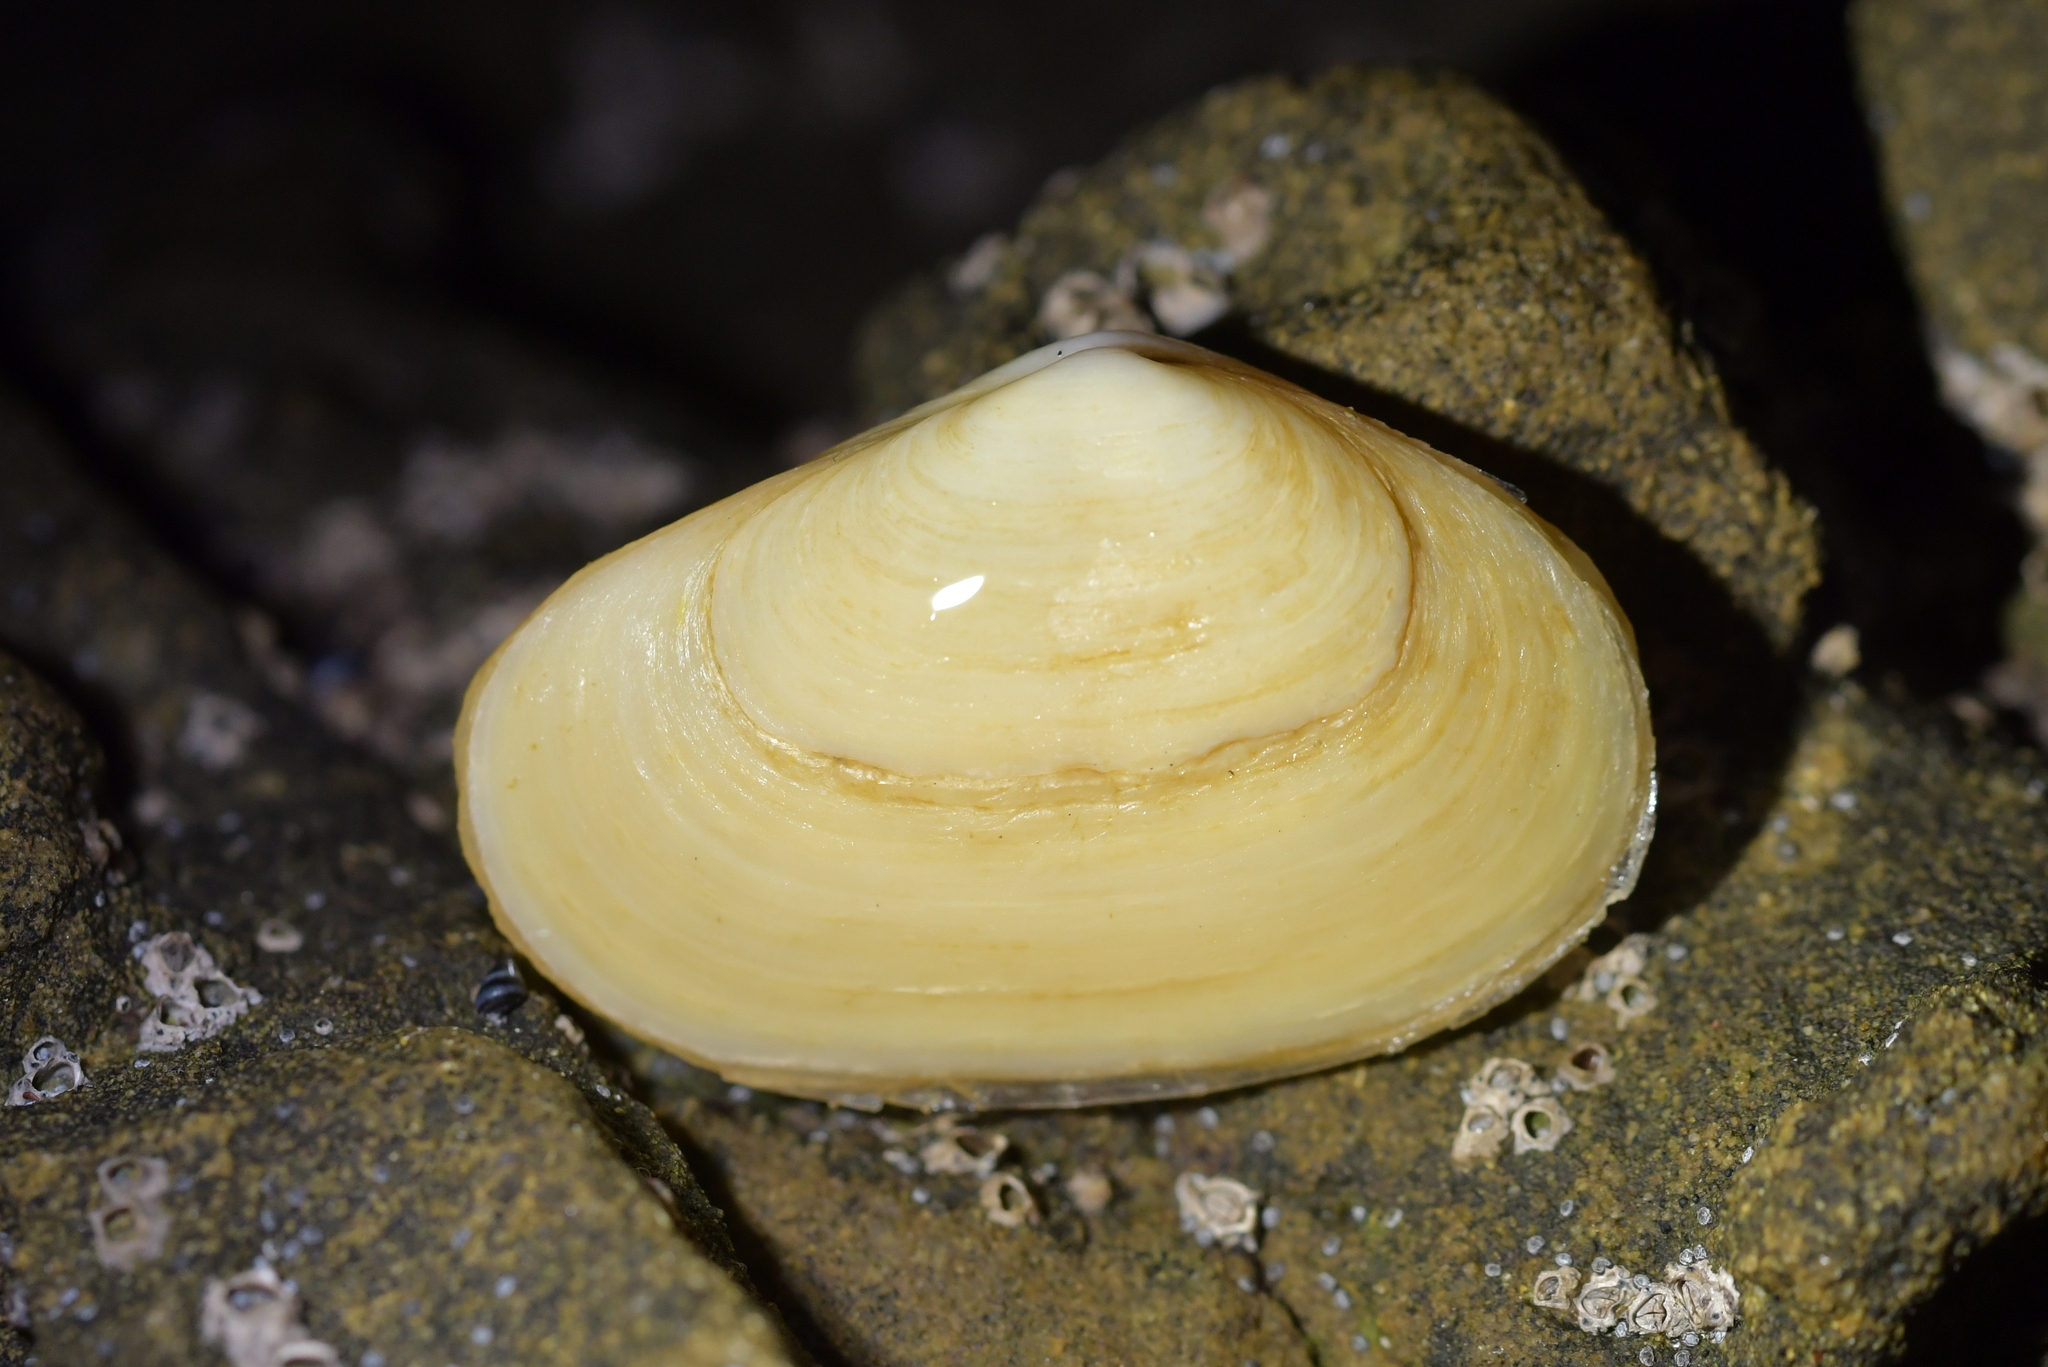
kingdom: Animalia
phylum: Mollusca
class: Bivalvia
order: Venerida
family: Mesodesmatidae
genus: Paphies
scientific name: Paphies australis
